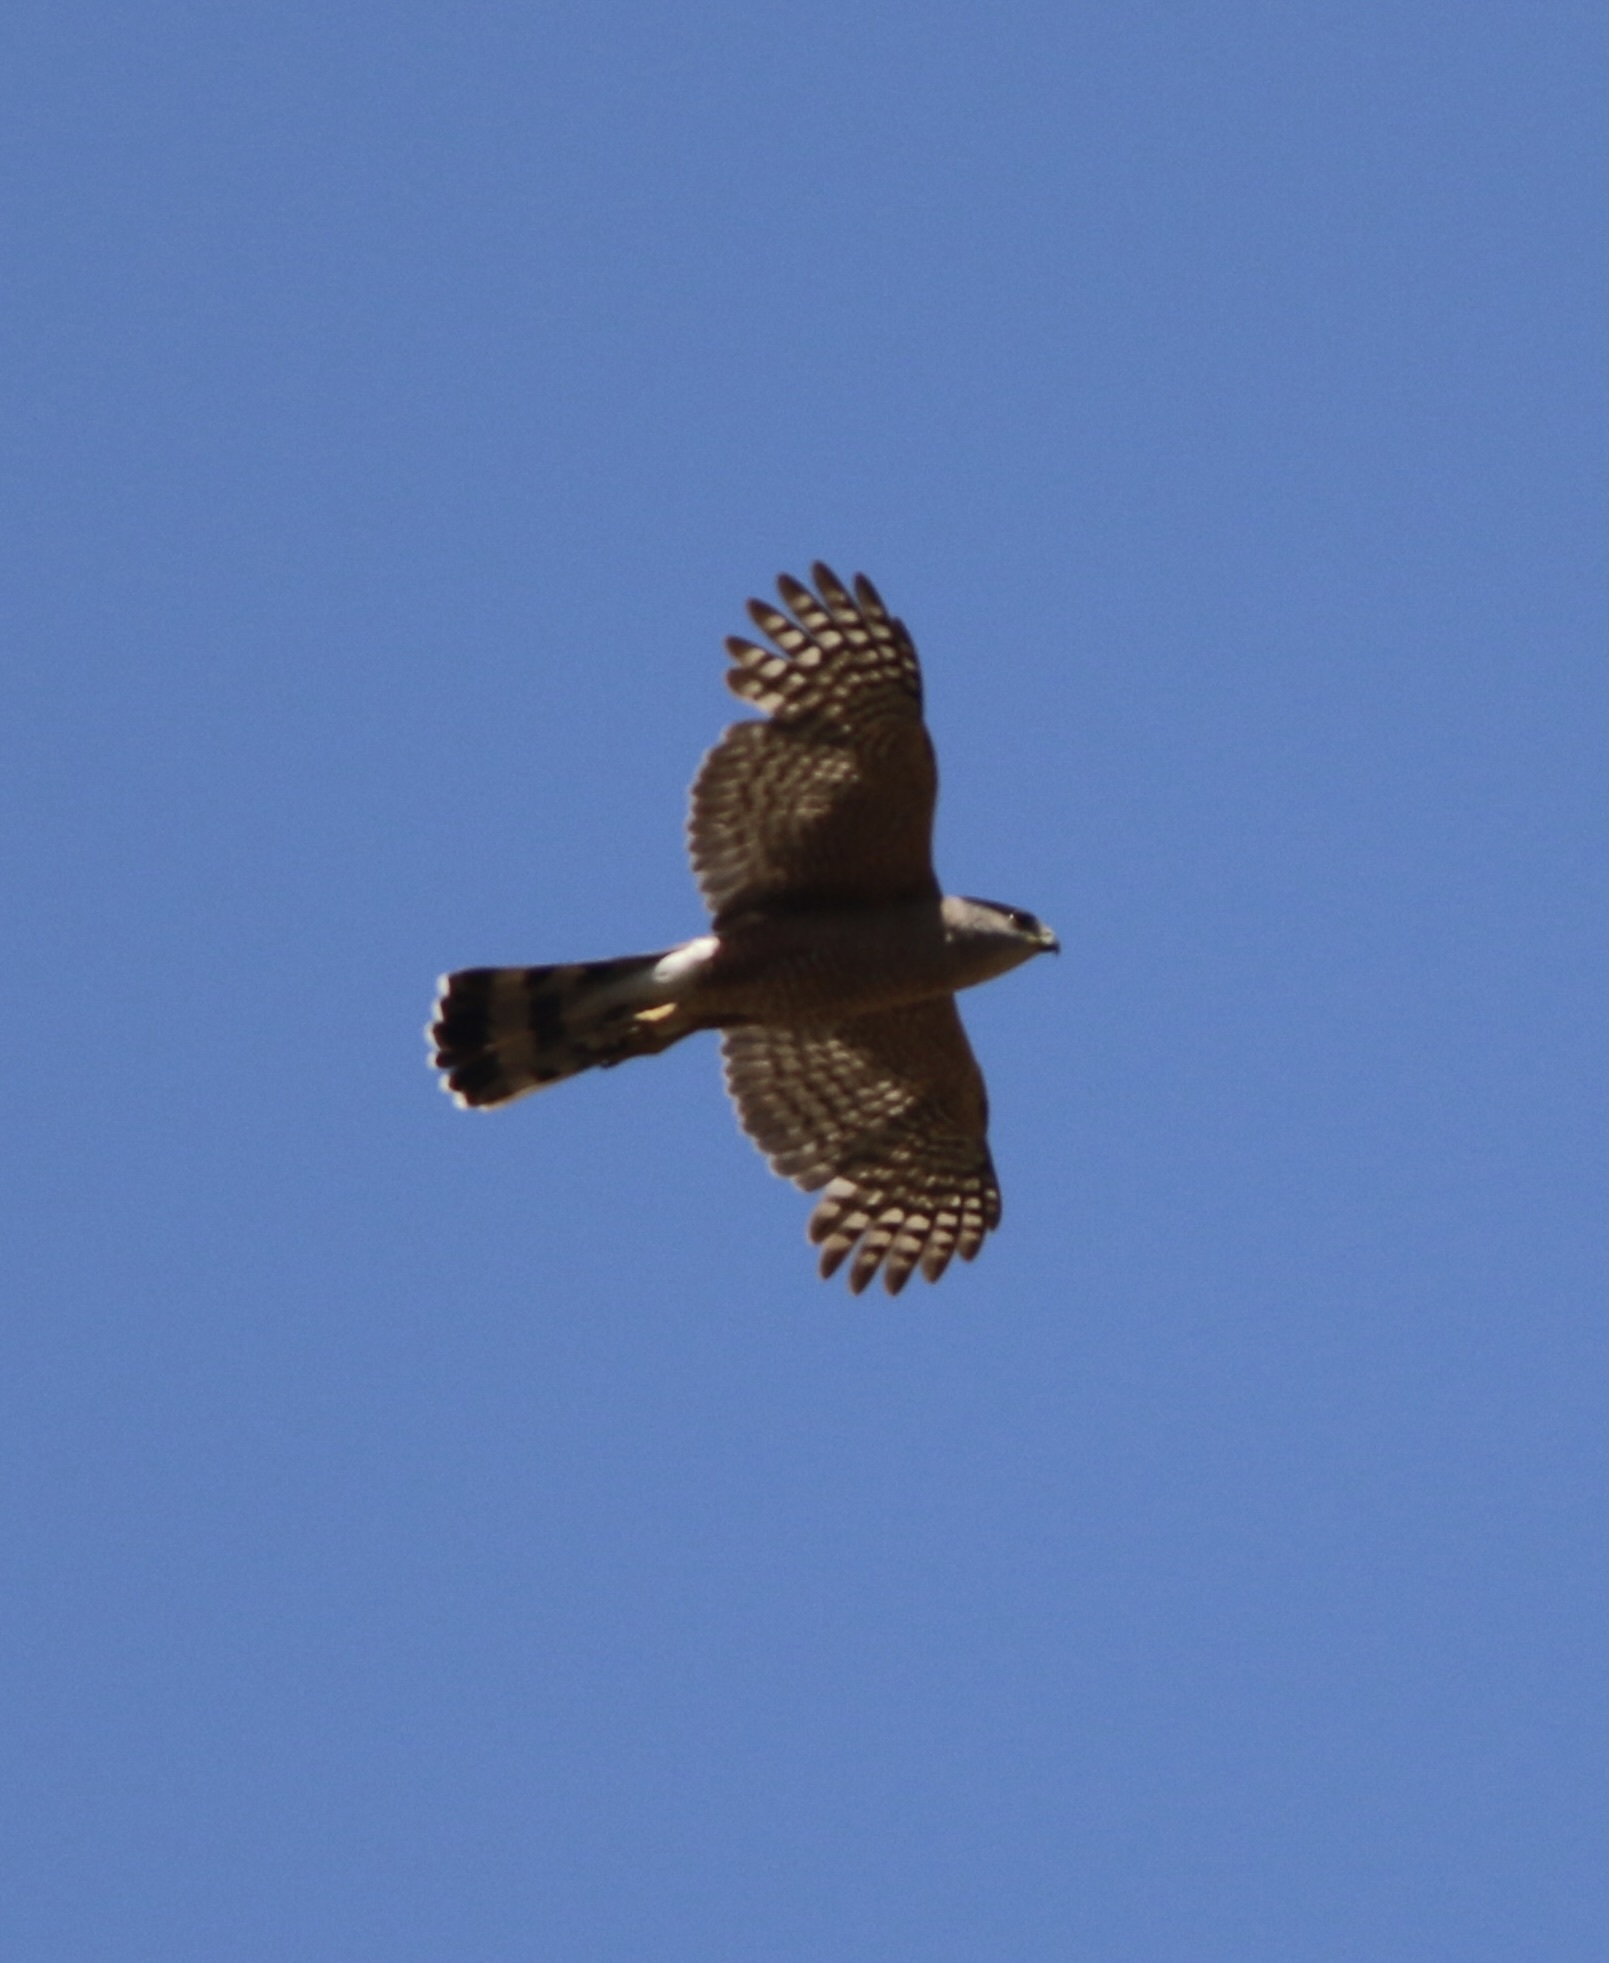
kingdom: Animalia
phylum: Chordata
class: Aves
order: Accipitriformes
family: Accipitridae
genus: Accipiter
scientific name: Accipiter cooperii
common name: Cooper's hawk
